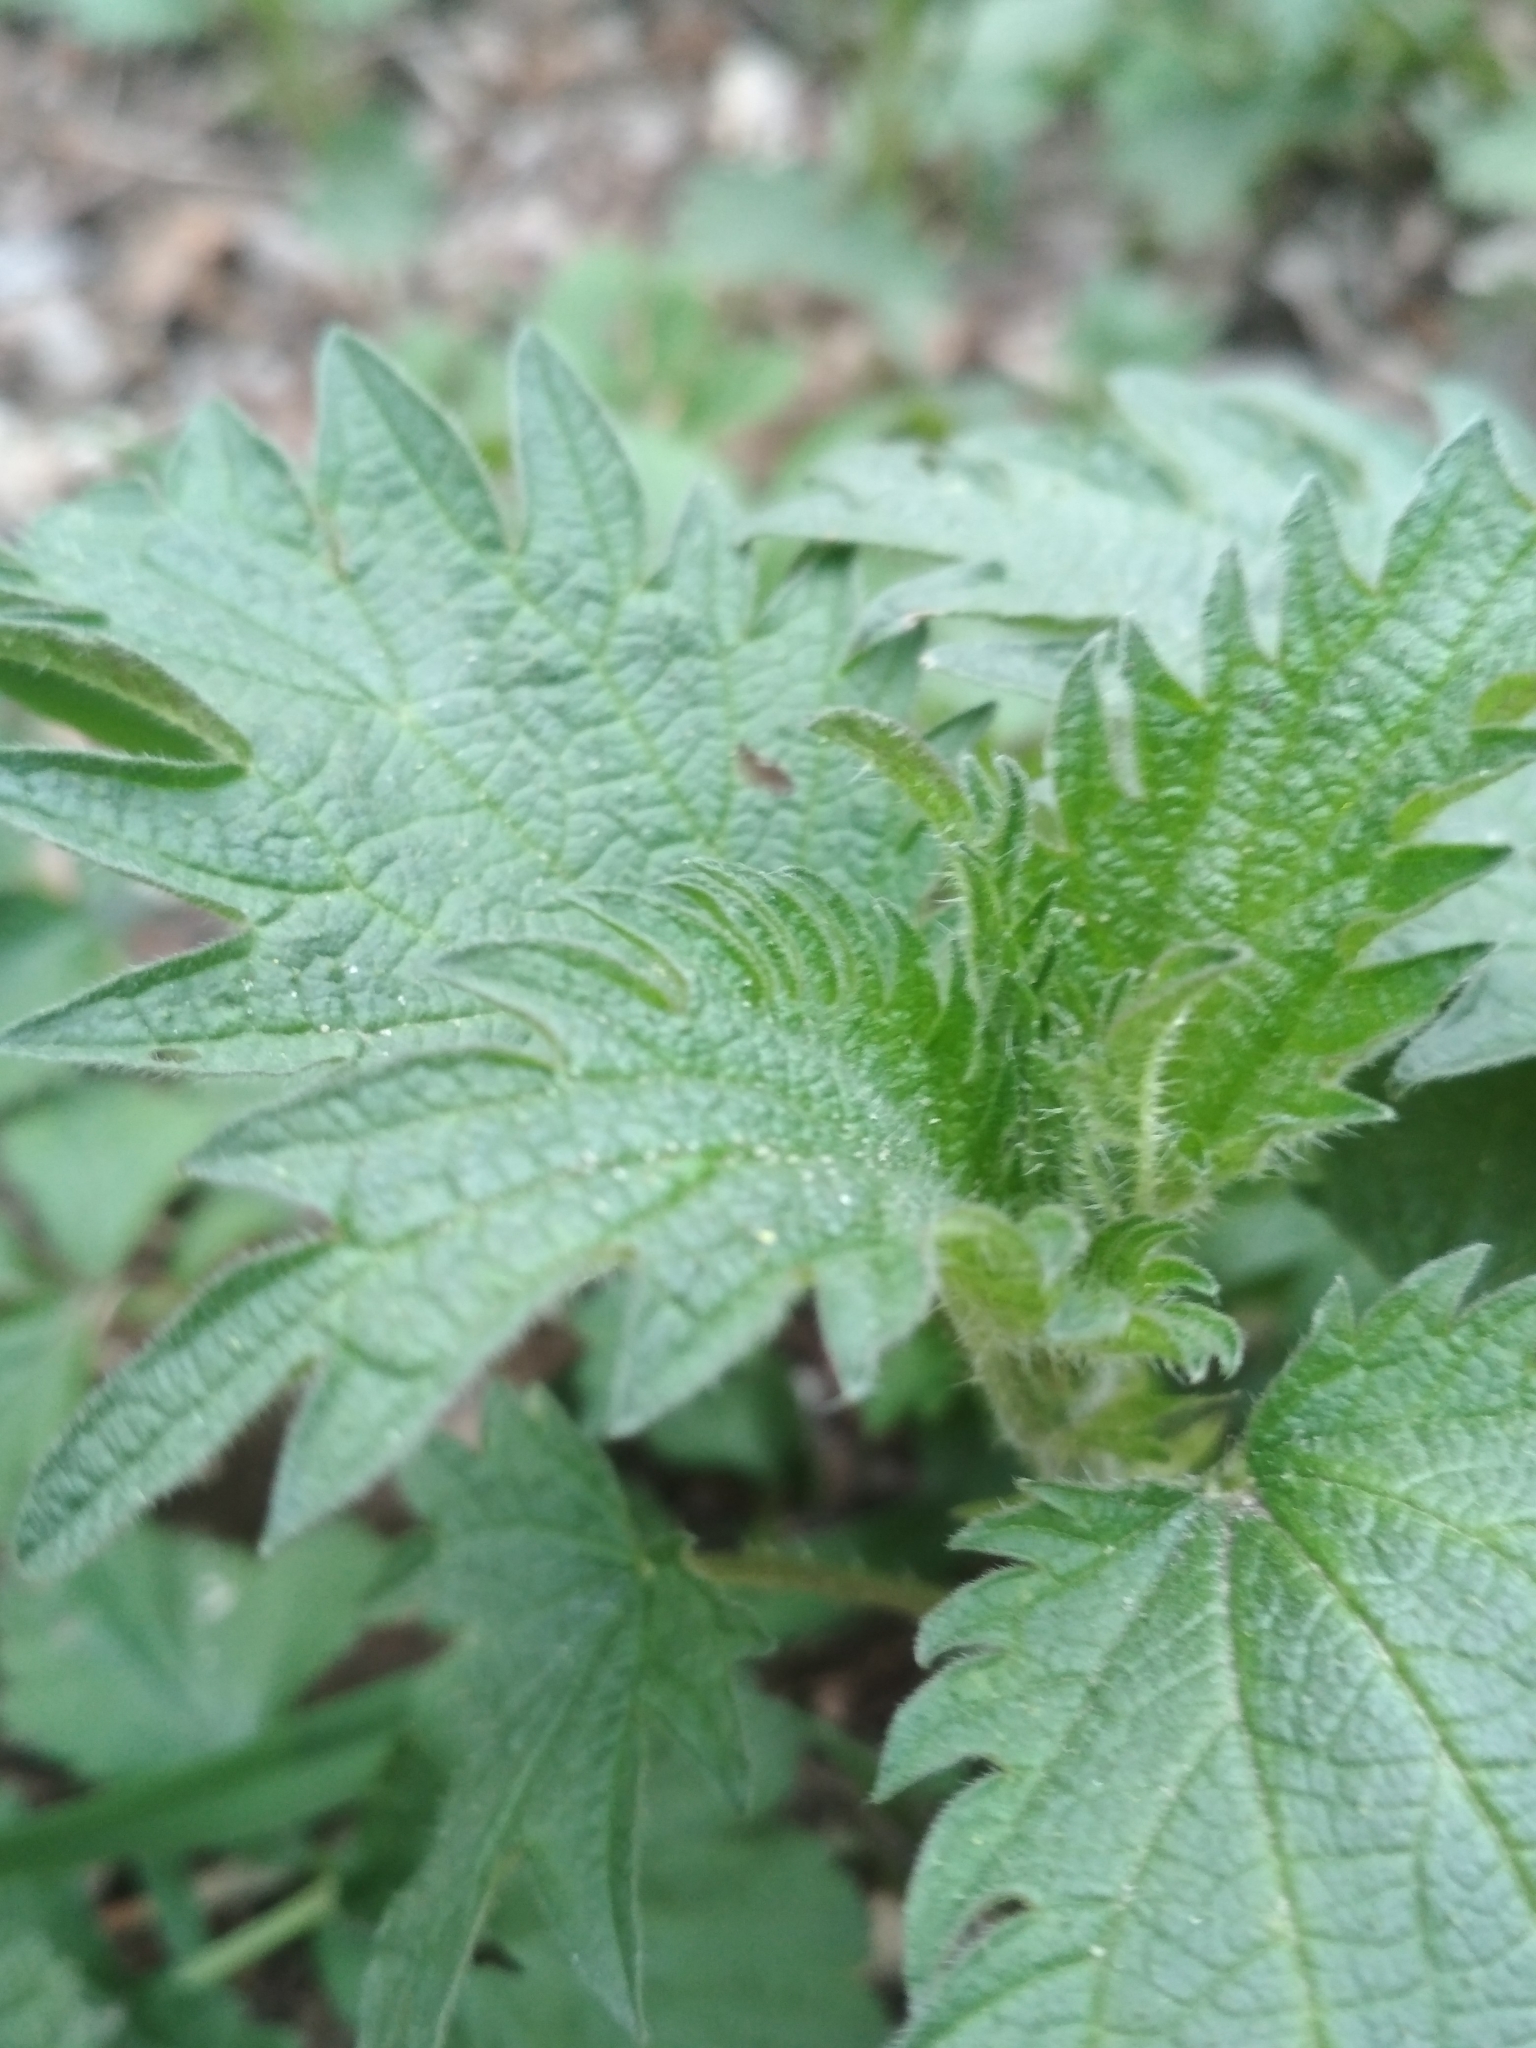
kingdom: Plantae
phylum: Tracheophyta
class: Magnoliopsida
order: Rosales
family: Urticaceae
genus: Urtica
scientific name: Urtica dioica
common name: Common nettle
